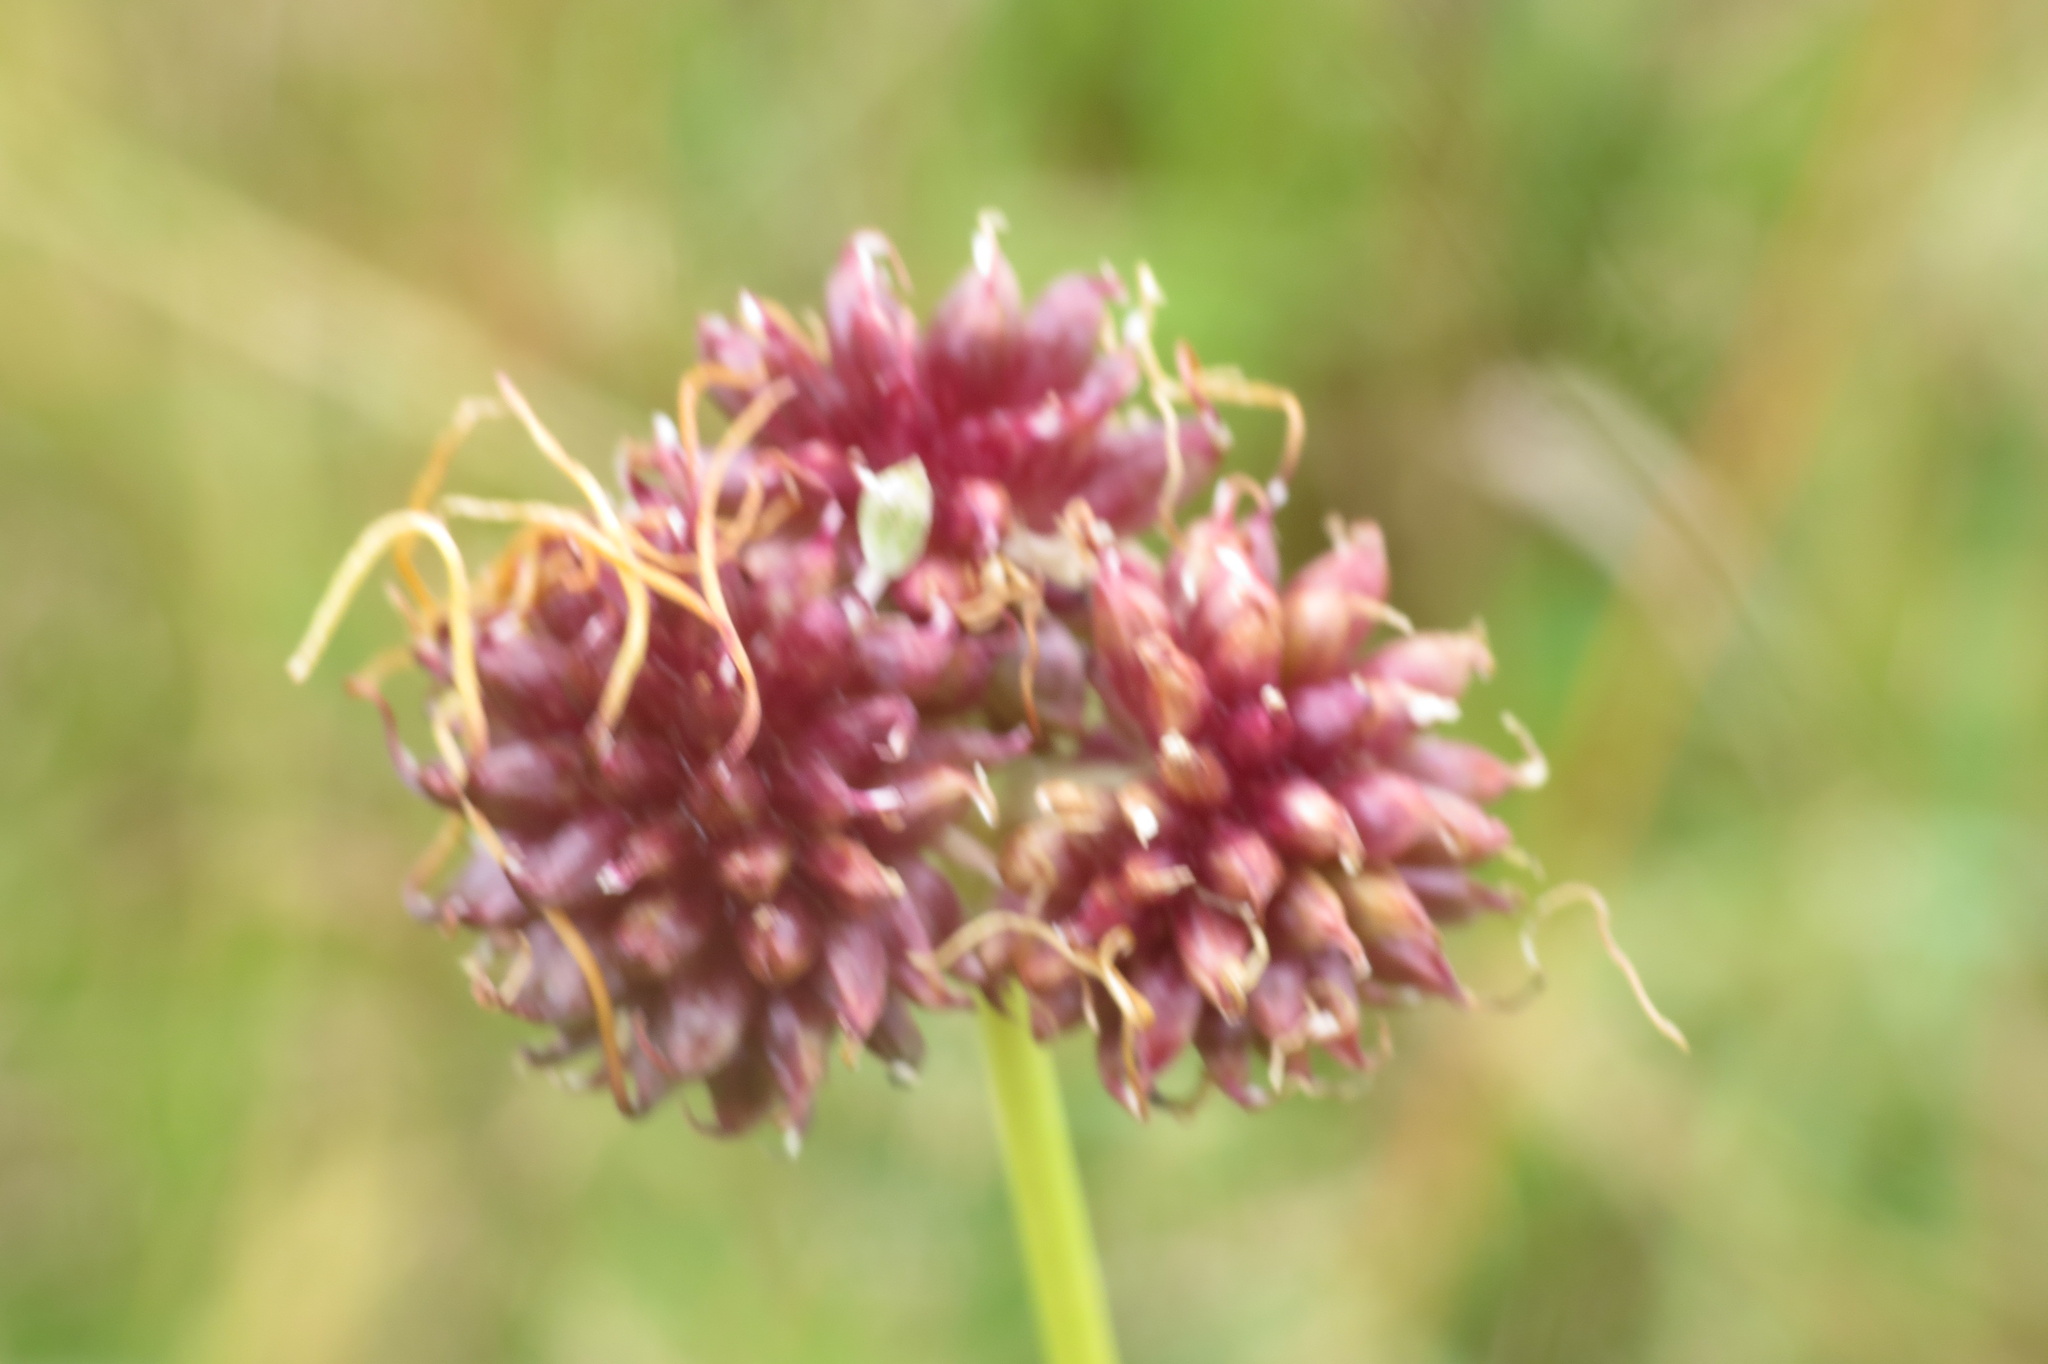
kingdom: Plantae
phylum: Tracheophyta
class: Liliopsida
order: Asparagales
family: Amaryllidaceae
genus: Allium
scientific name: Allium vineale
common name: Crow garlic
